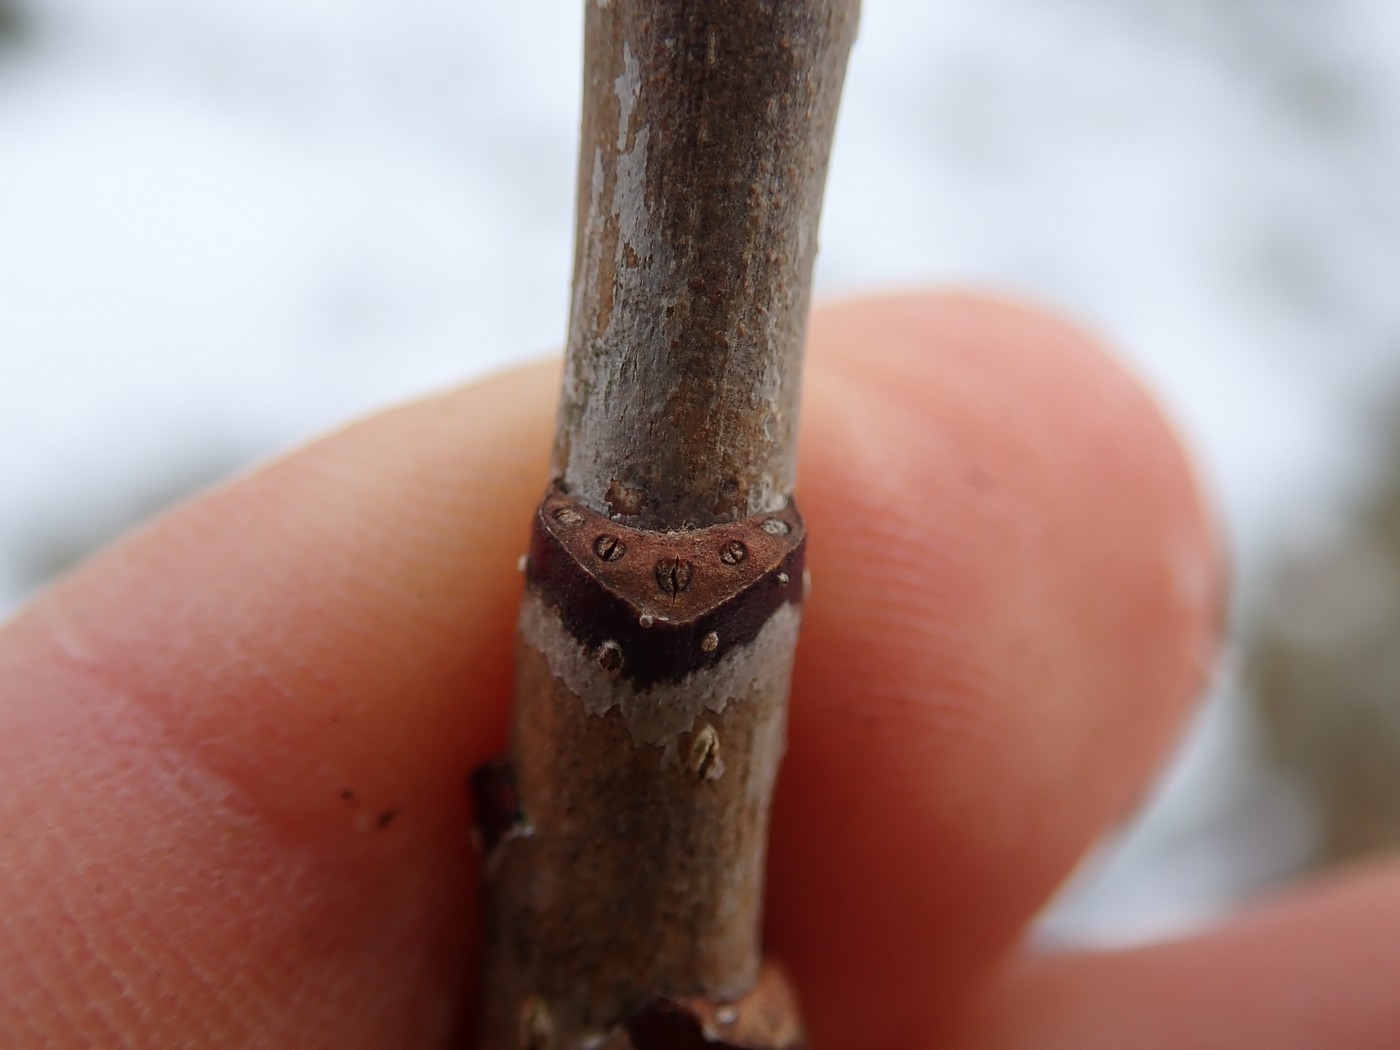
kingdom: Plantae
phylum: Tracheophyta
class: Magnoliopsida
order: Rosales
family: Rosaceae
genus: Sorbus
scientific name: Sorbus americana
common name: American mountain-ash
